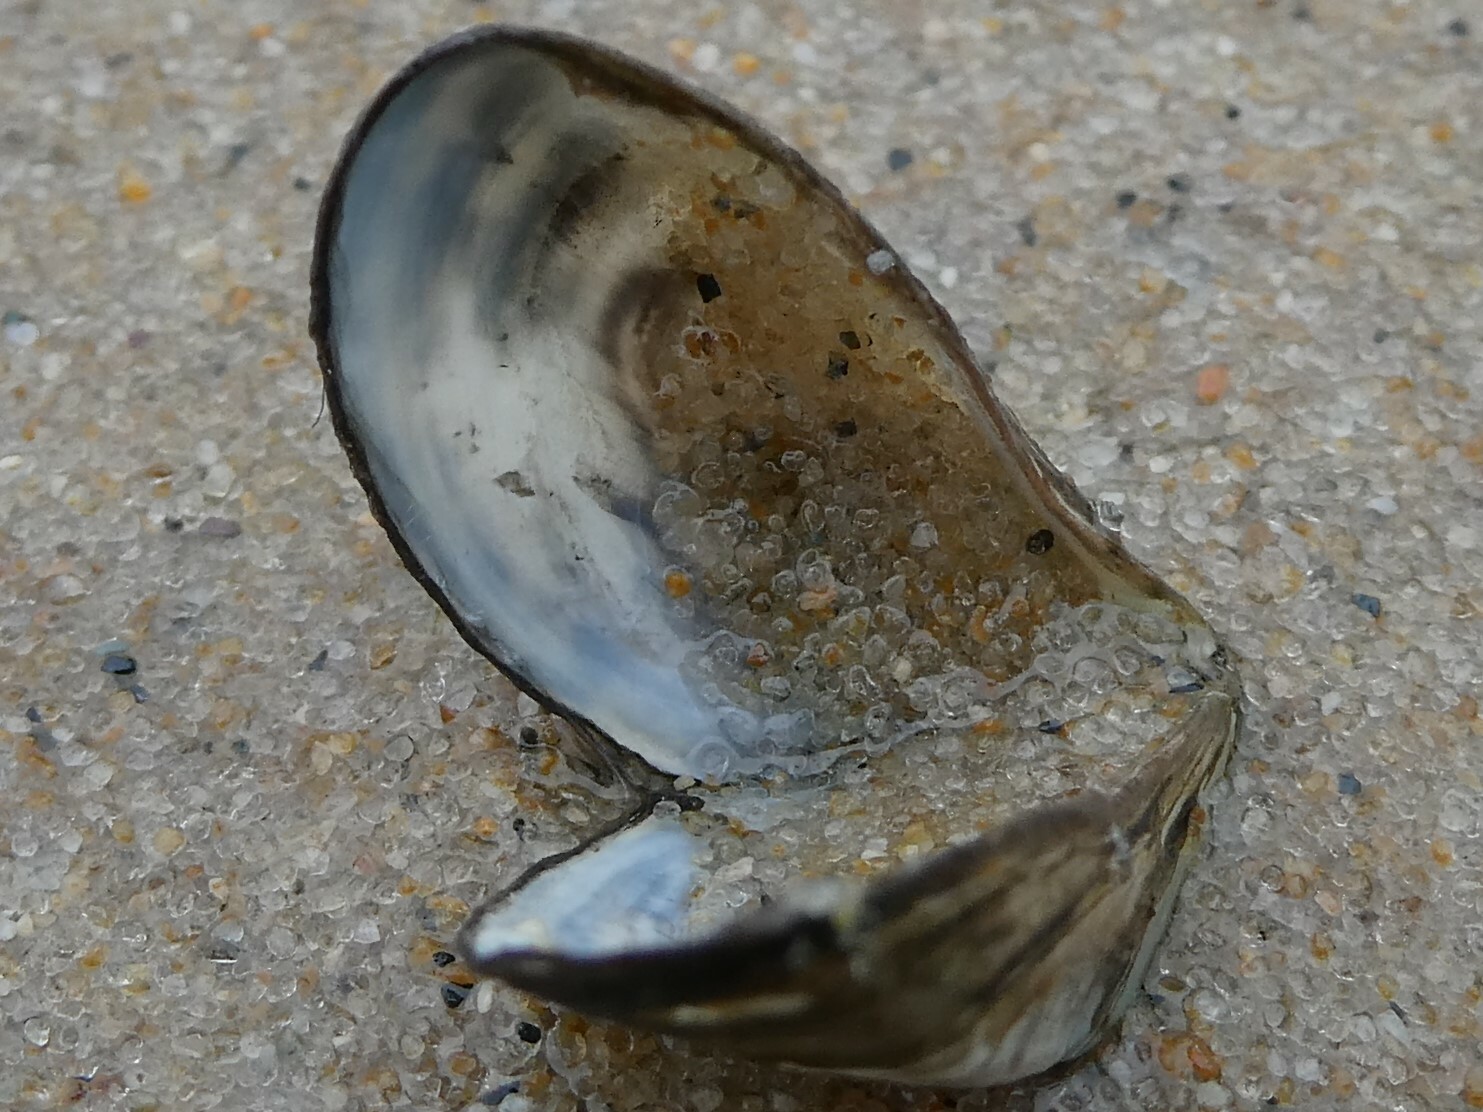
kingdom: Animalia
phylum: Mollusca
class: Bivalvia
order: Myida
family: Dreissenidae
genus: Dreissena
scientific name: Dreissena polymorpha
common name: Zebra mussel
